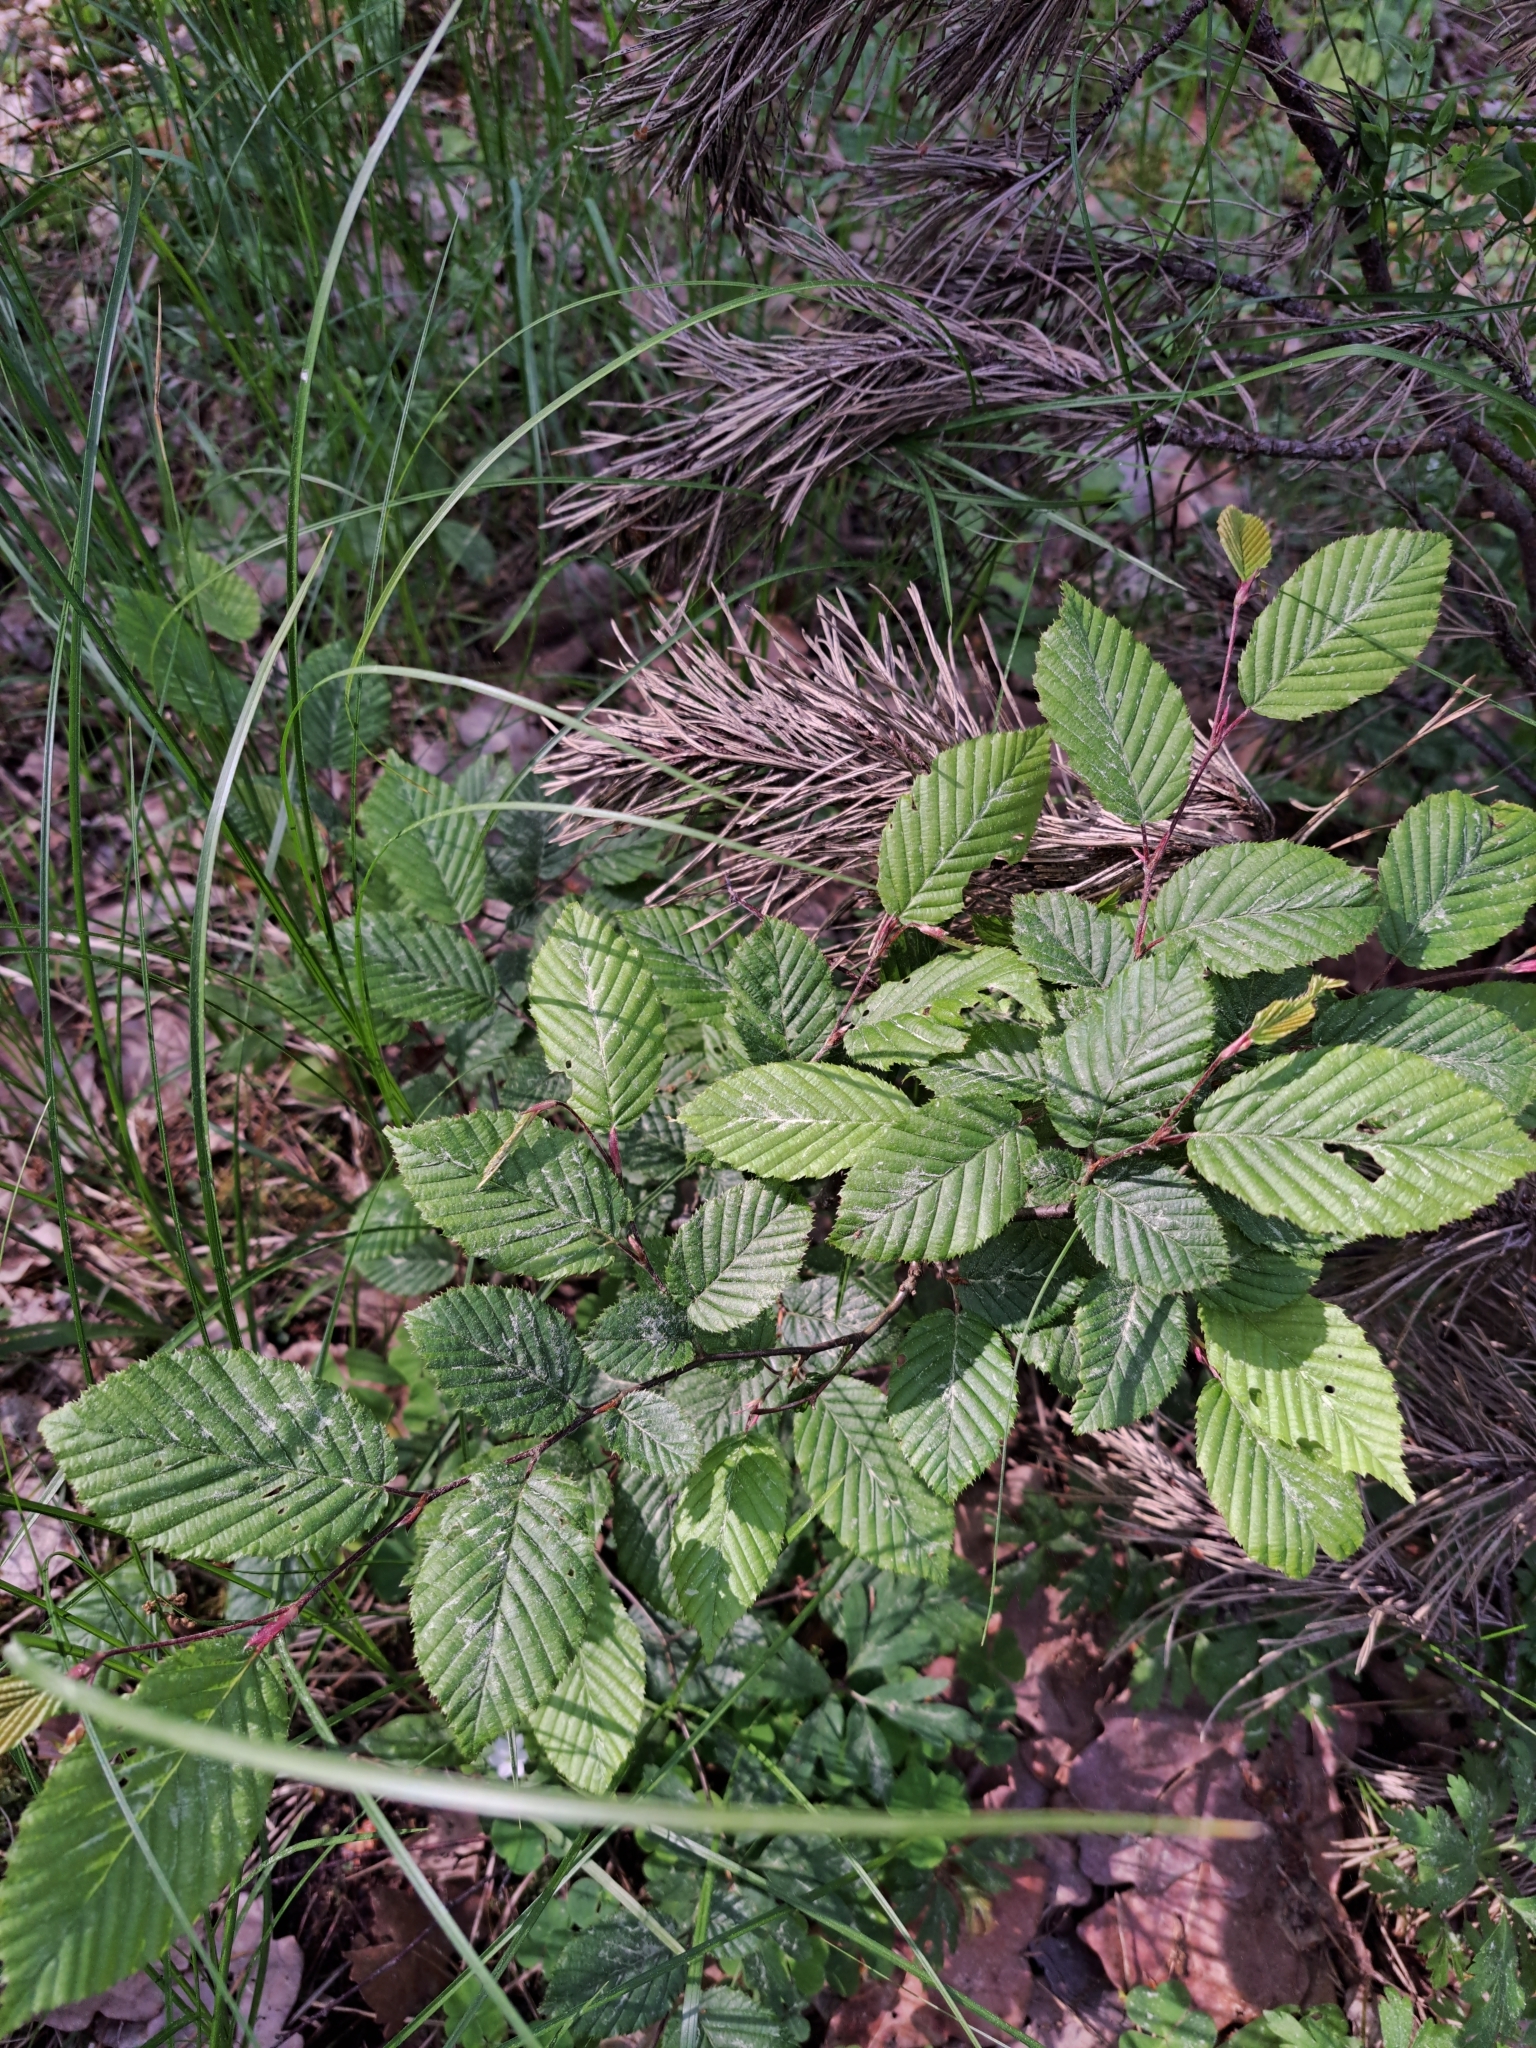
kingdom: Plantae
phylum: Tracheophyta
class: Magnoliopsida
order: Fagales
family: Betulaceae
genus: Carpinus
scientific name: Carpinus betulus
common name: Hornbeam
